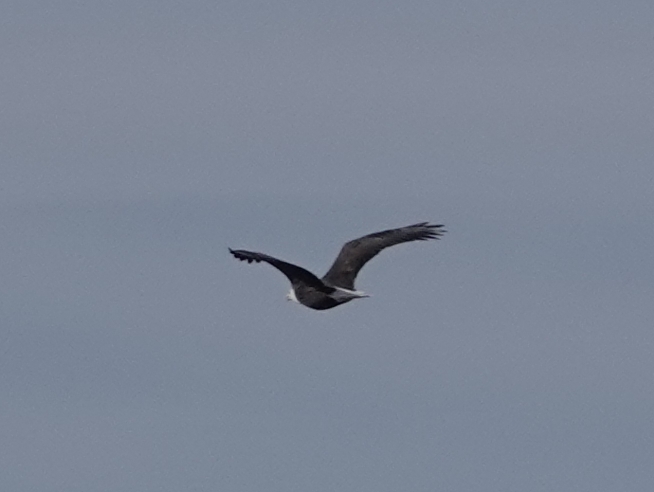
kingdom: Animalia
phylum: Chordata
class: Aves
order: Accipitriformes
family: Accipitridae
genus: Haliaeetus
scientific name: Haliaeetus leucocephalus
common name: Bald eagle
